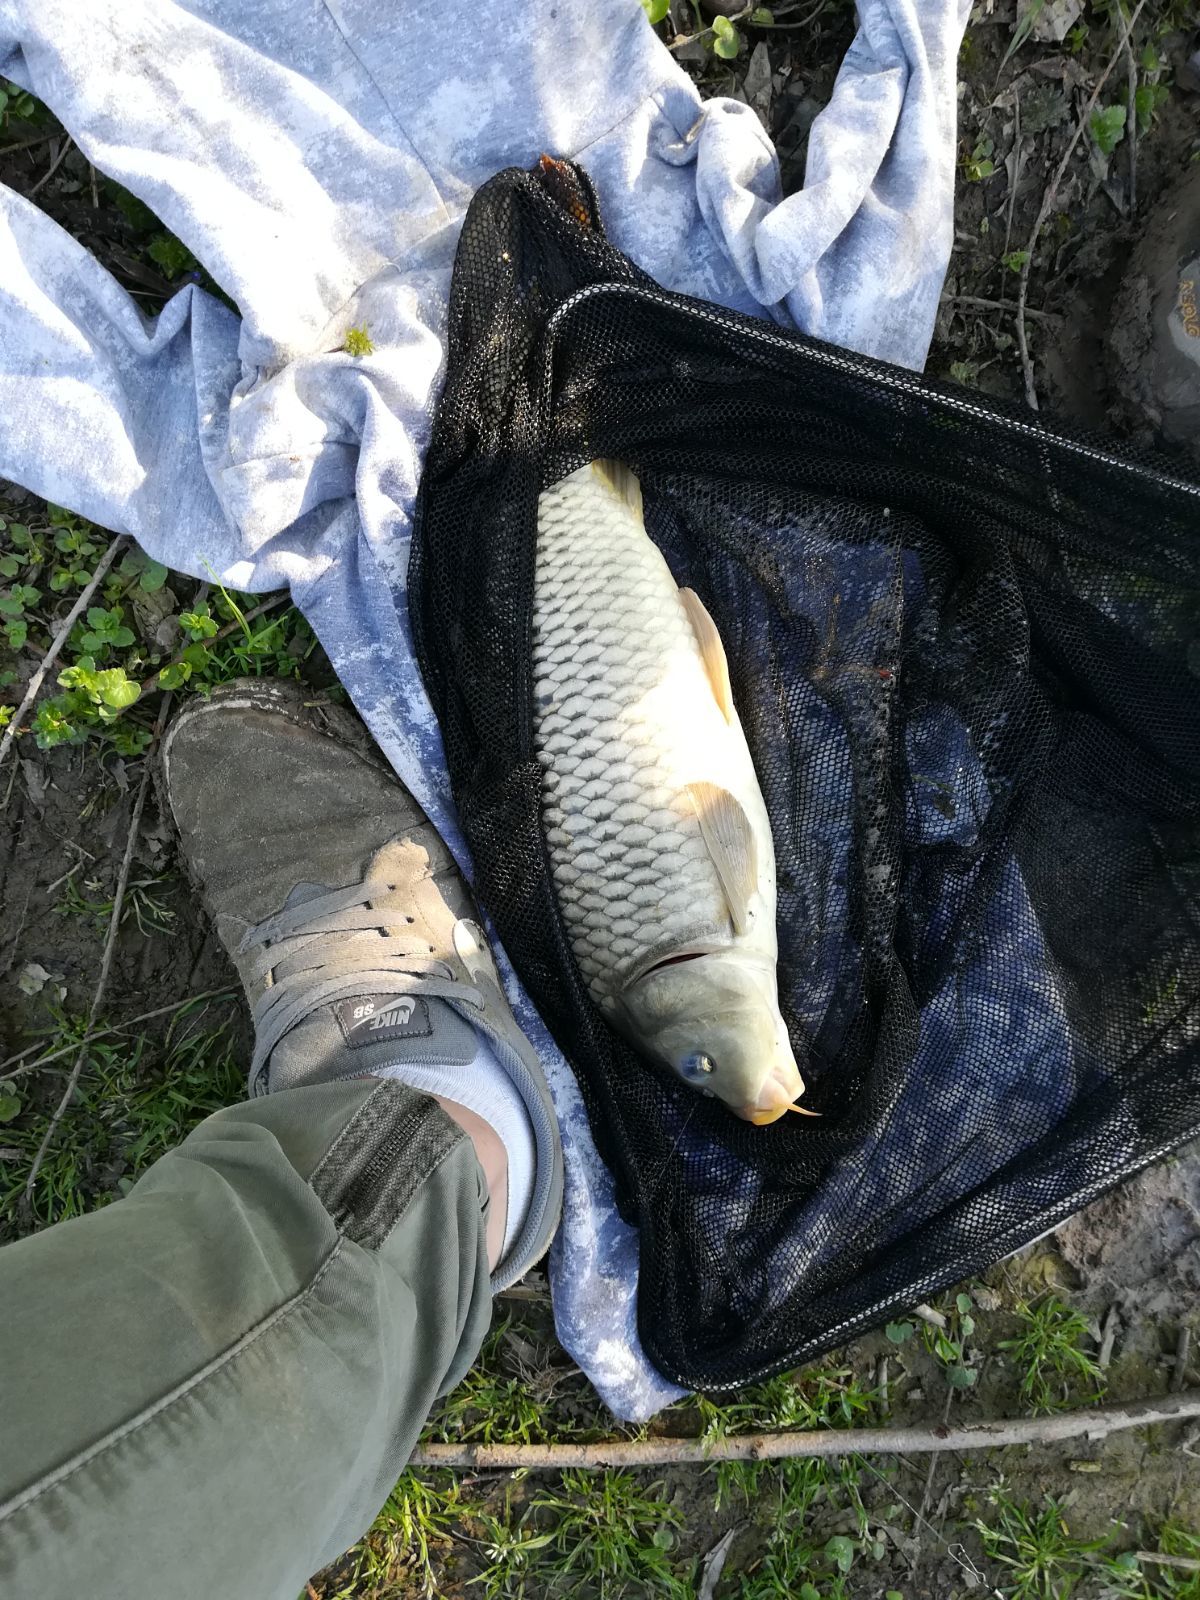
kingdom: Animalia
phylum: Chordata
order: Cypriniformes
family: Cyprinidae
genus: Cyprinus
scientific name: Cyprinus carpio
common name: Common carp
